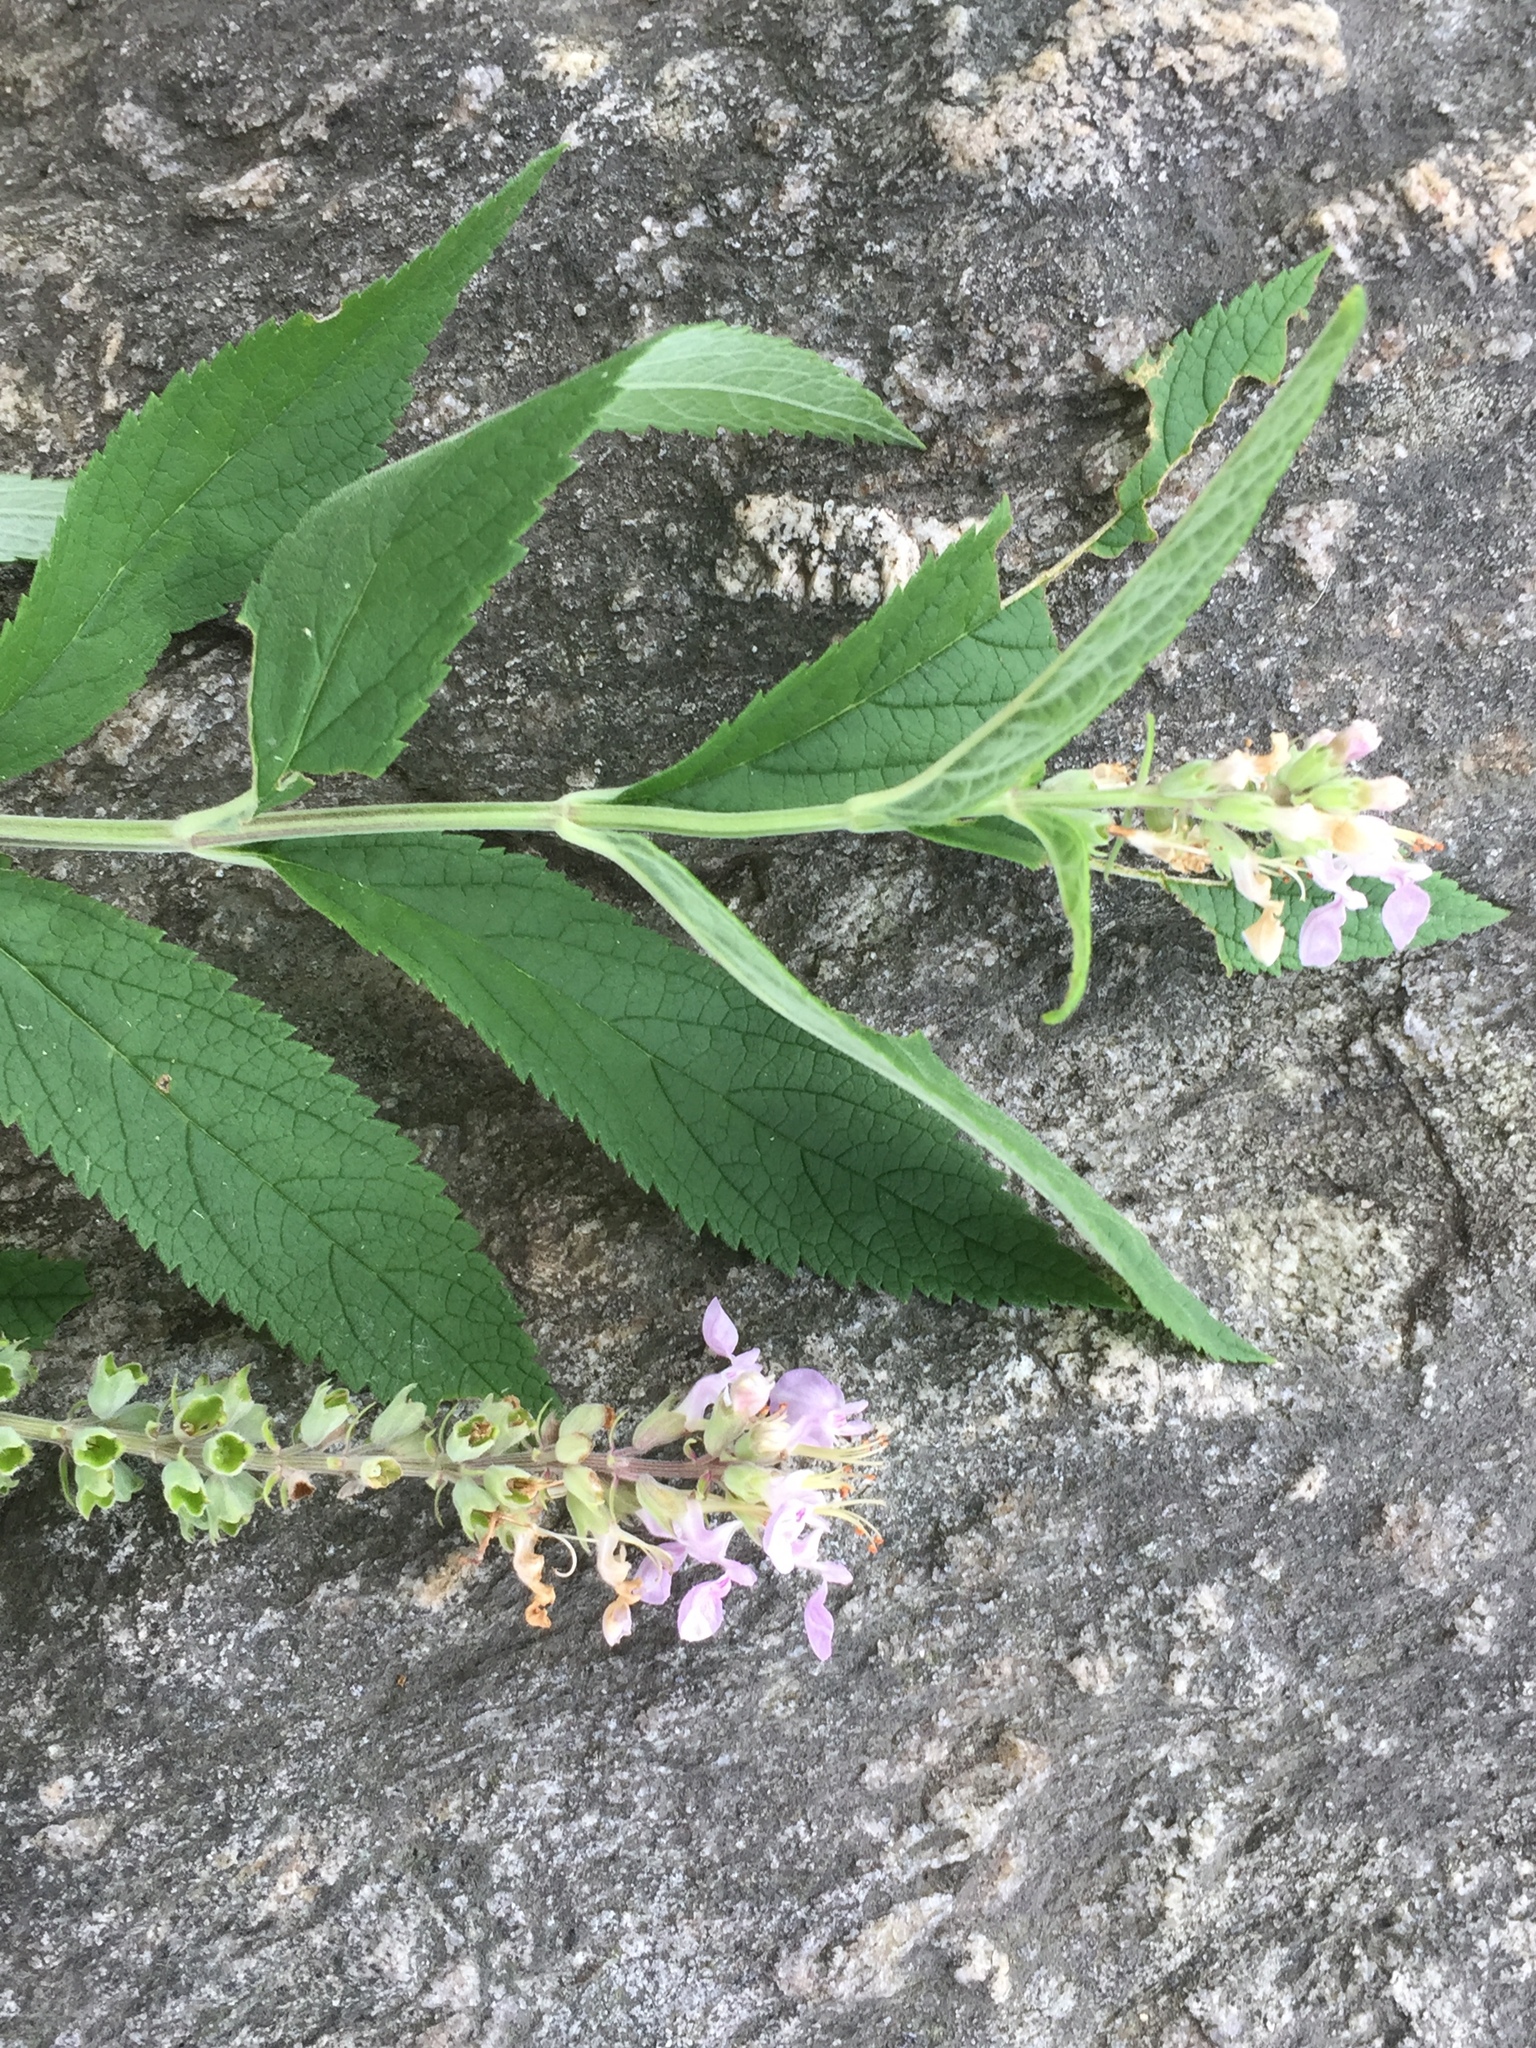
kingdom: Plantae
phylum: Tracheophyta
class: Magnoliopsida
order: Lamiales
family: Lamiaceae
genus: Teucrium
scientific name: Teucrium canadense
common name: American germander
